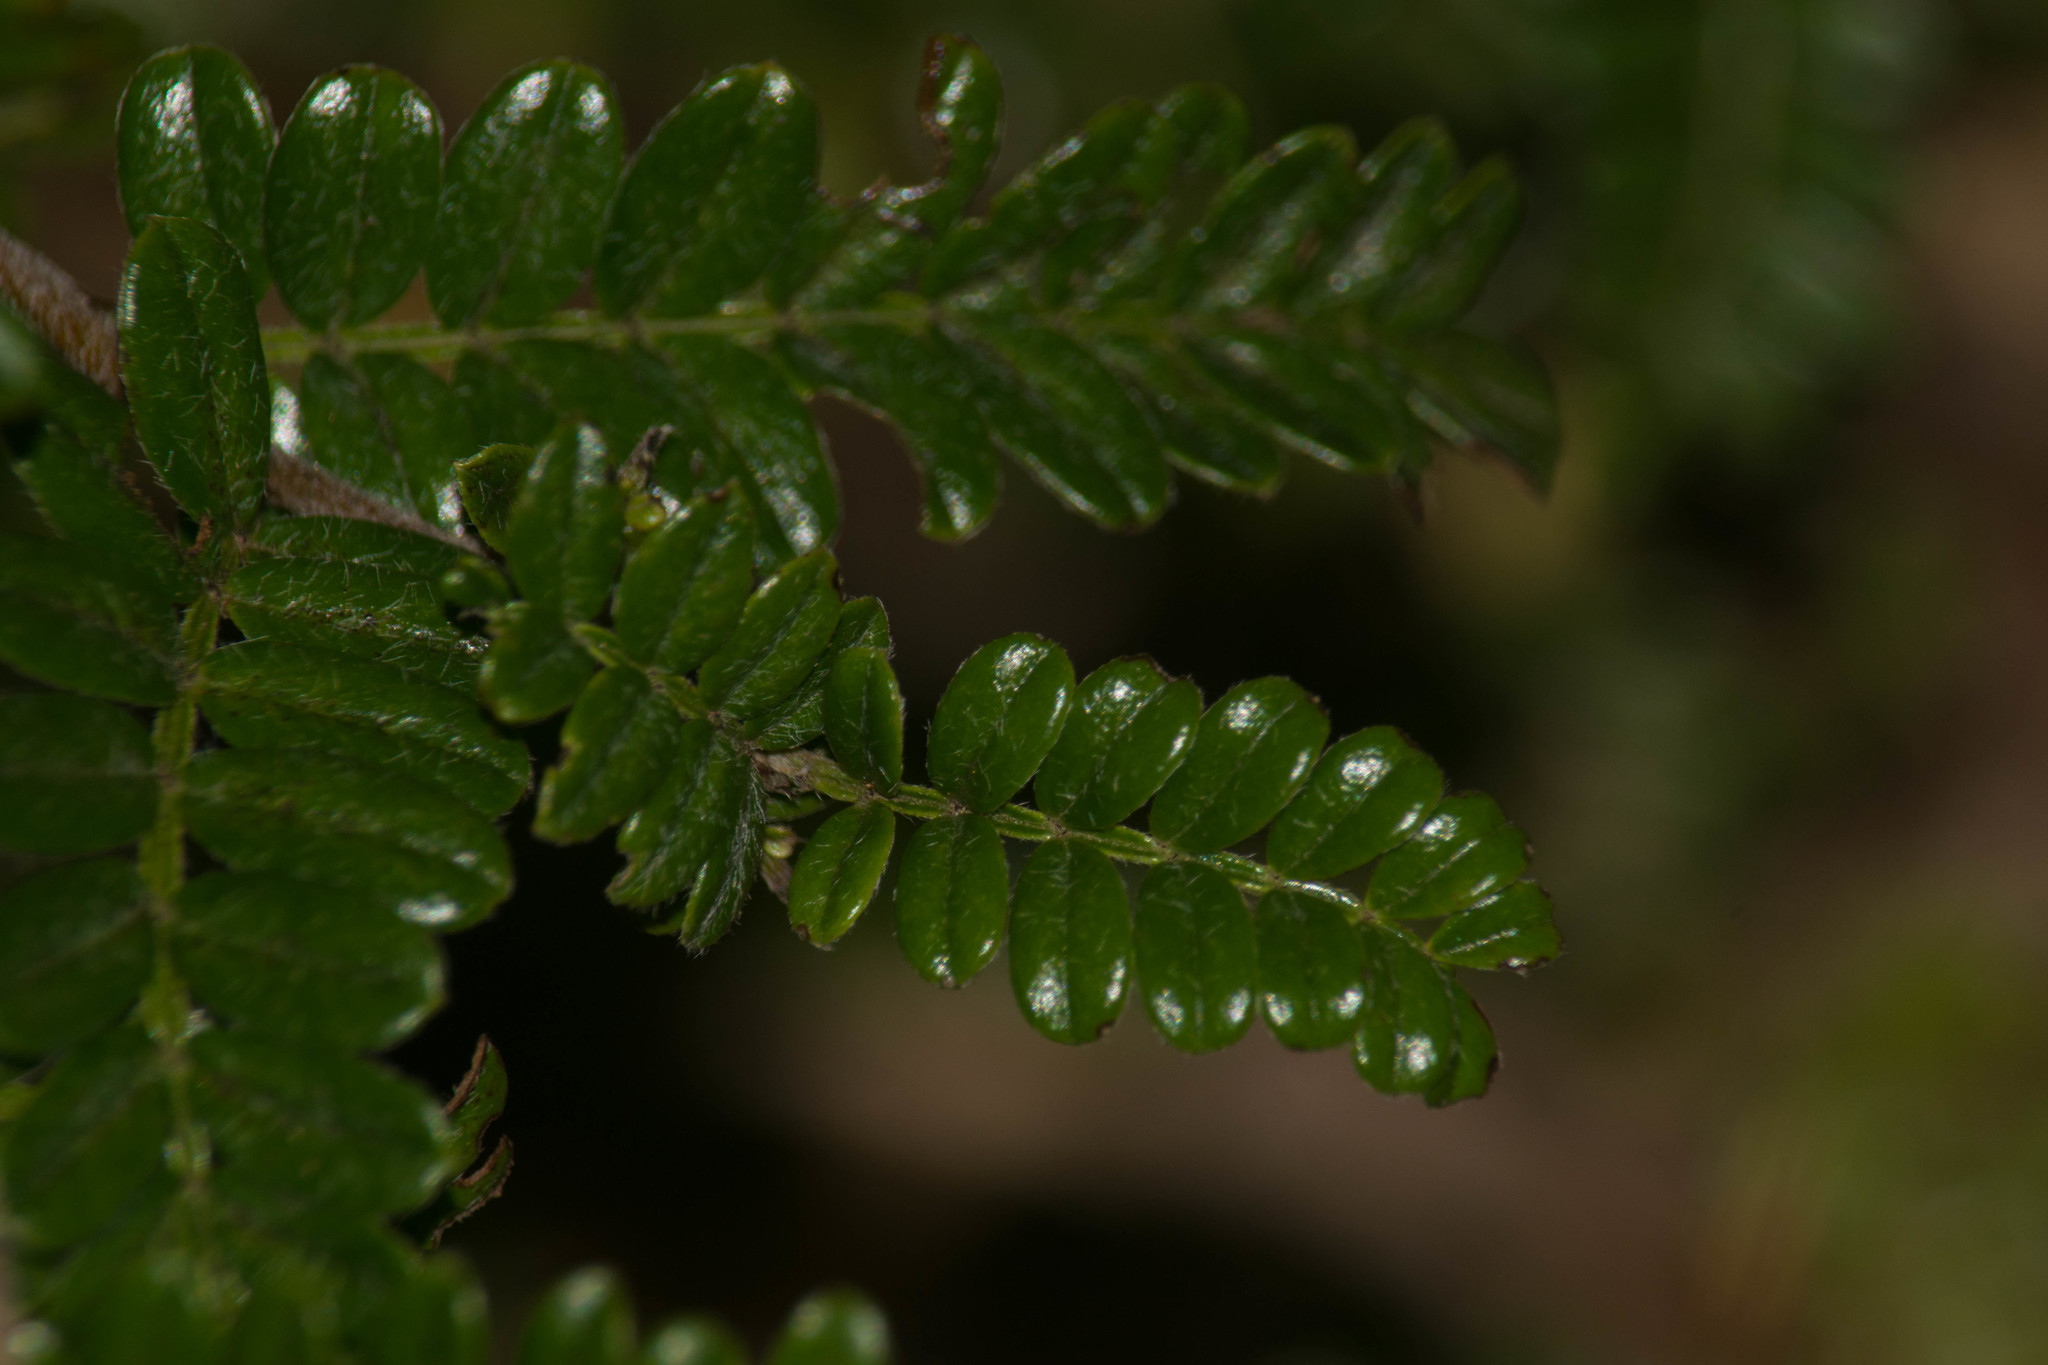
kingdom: Plantae
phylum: Tracheophyta
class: Magnoliopsida
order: Rosales
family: Rosaceae
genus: Osteomeles
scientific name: Osteomeles anthyllidifolia
